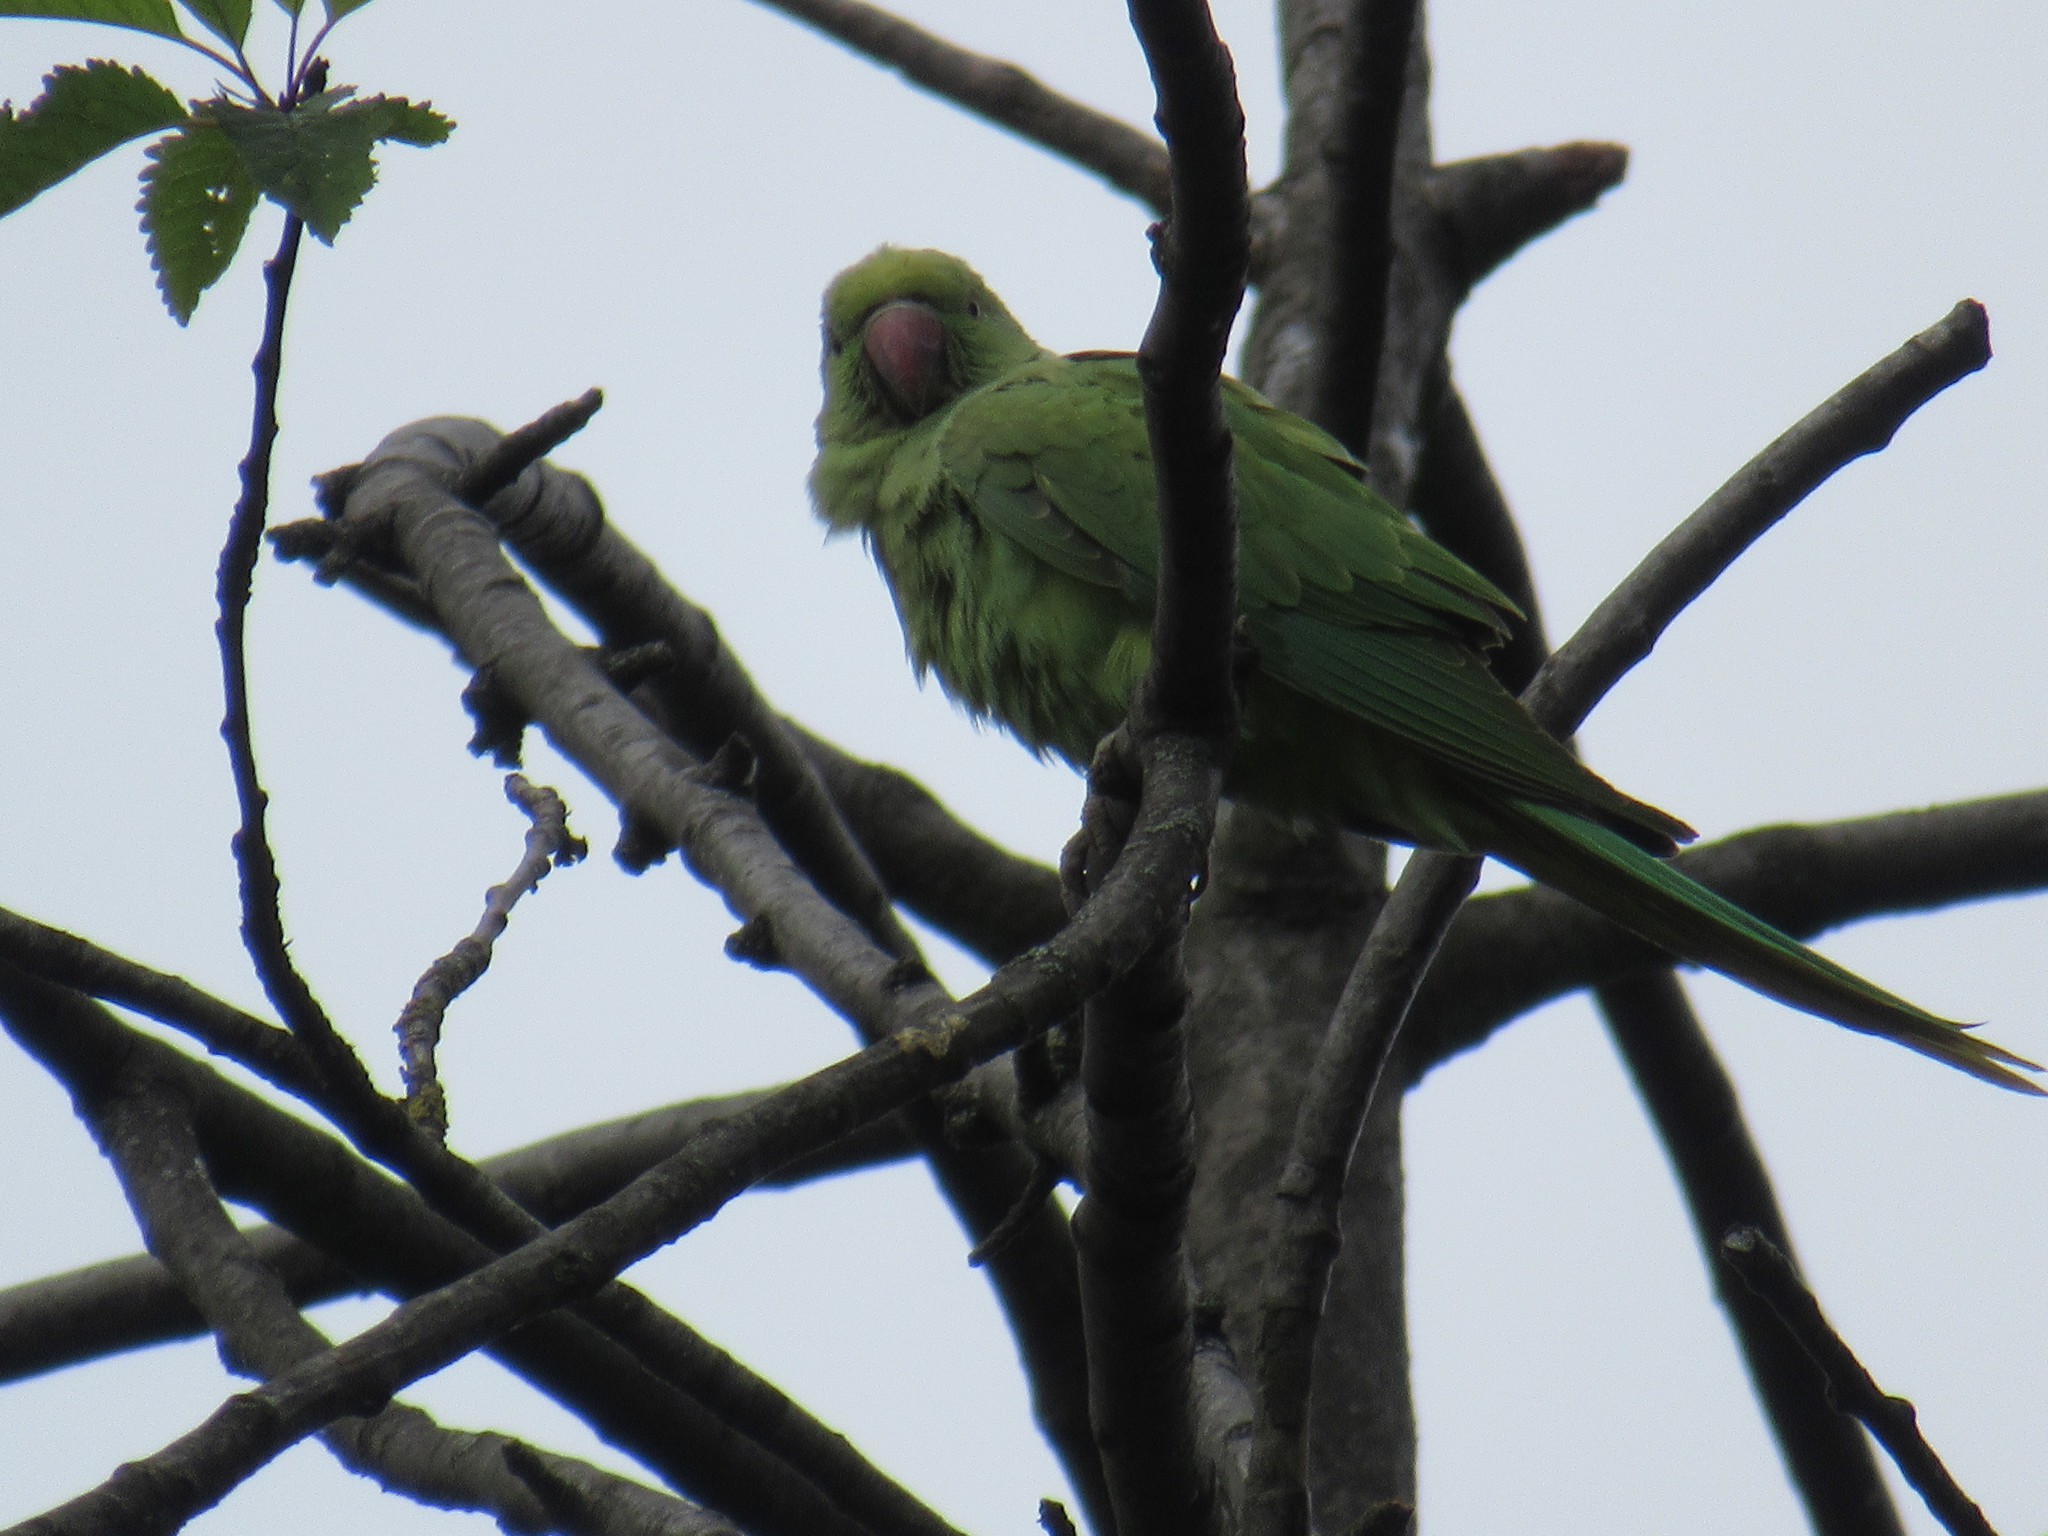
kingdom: Animalia
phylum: Chordata
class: Aves
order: Psittaciformes
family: Psittacidae
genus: Psittacula
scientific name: Psittacula krameri
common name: Rose-ringed parakeet
